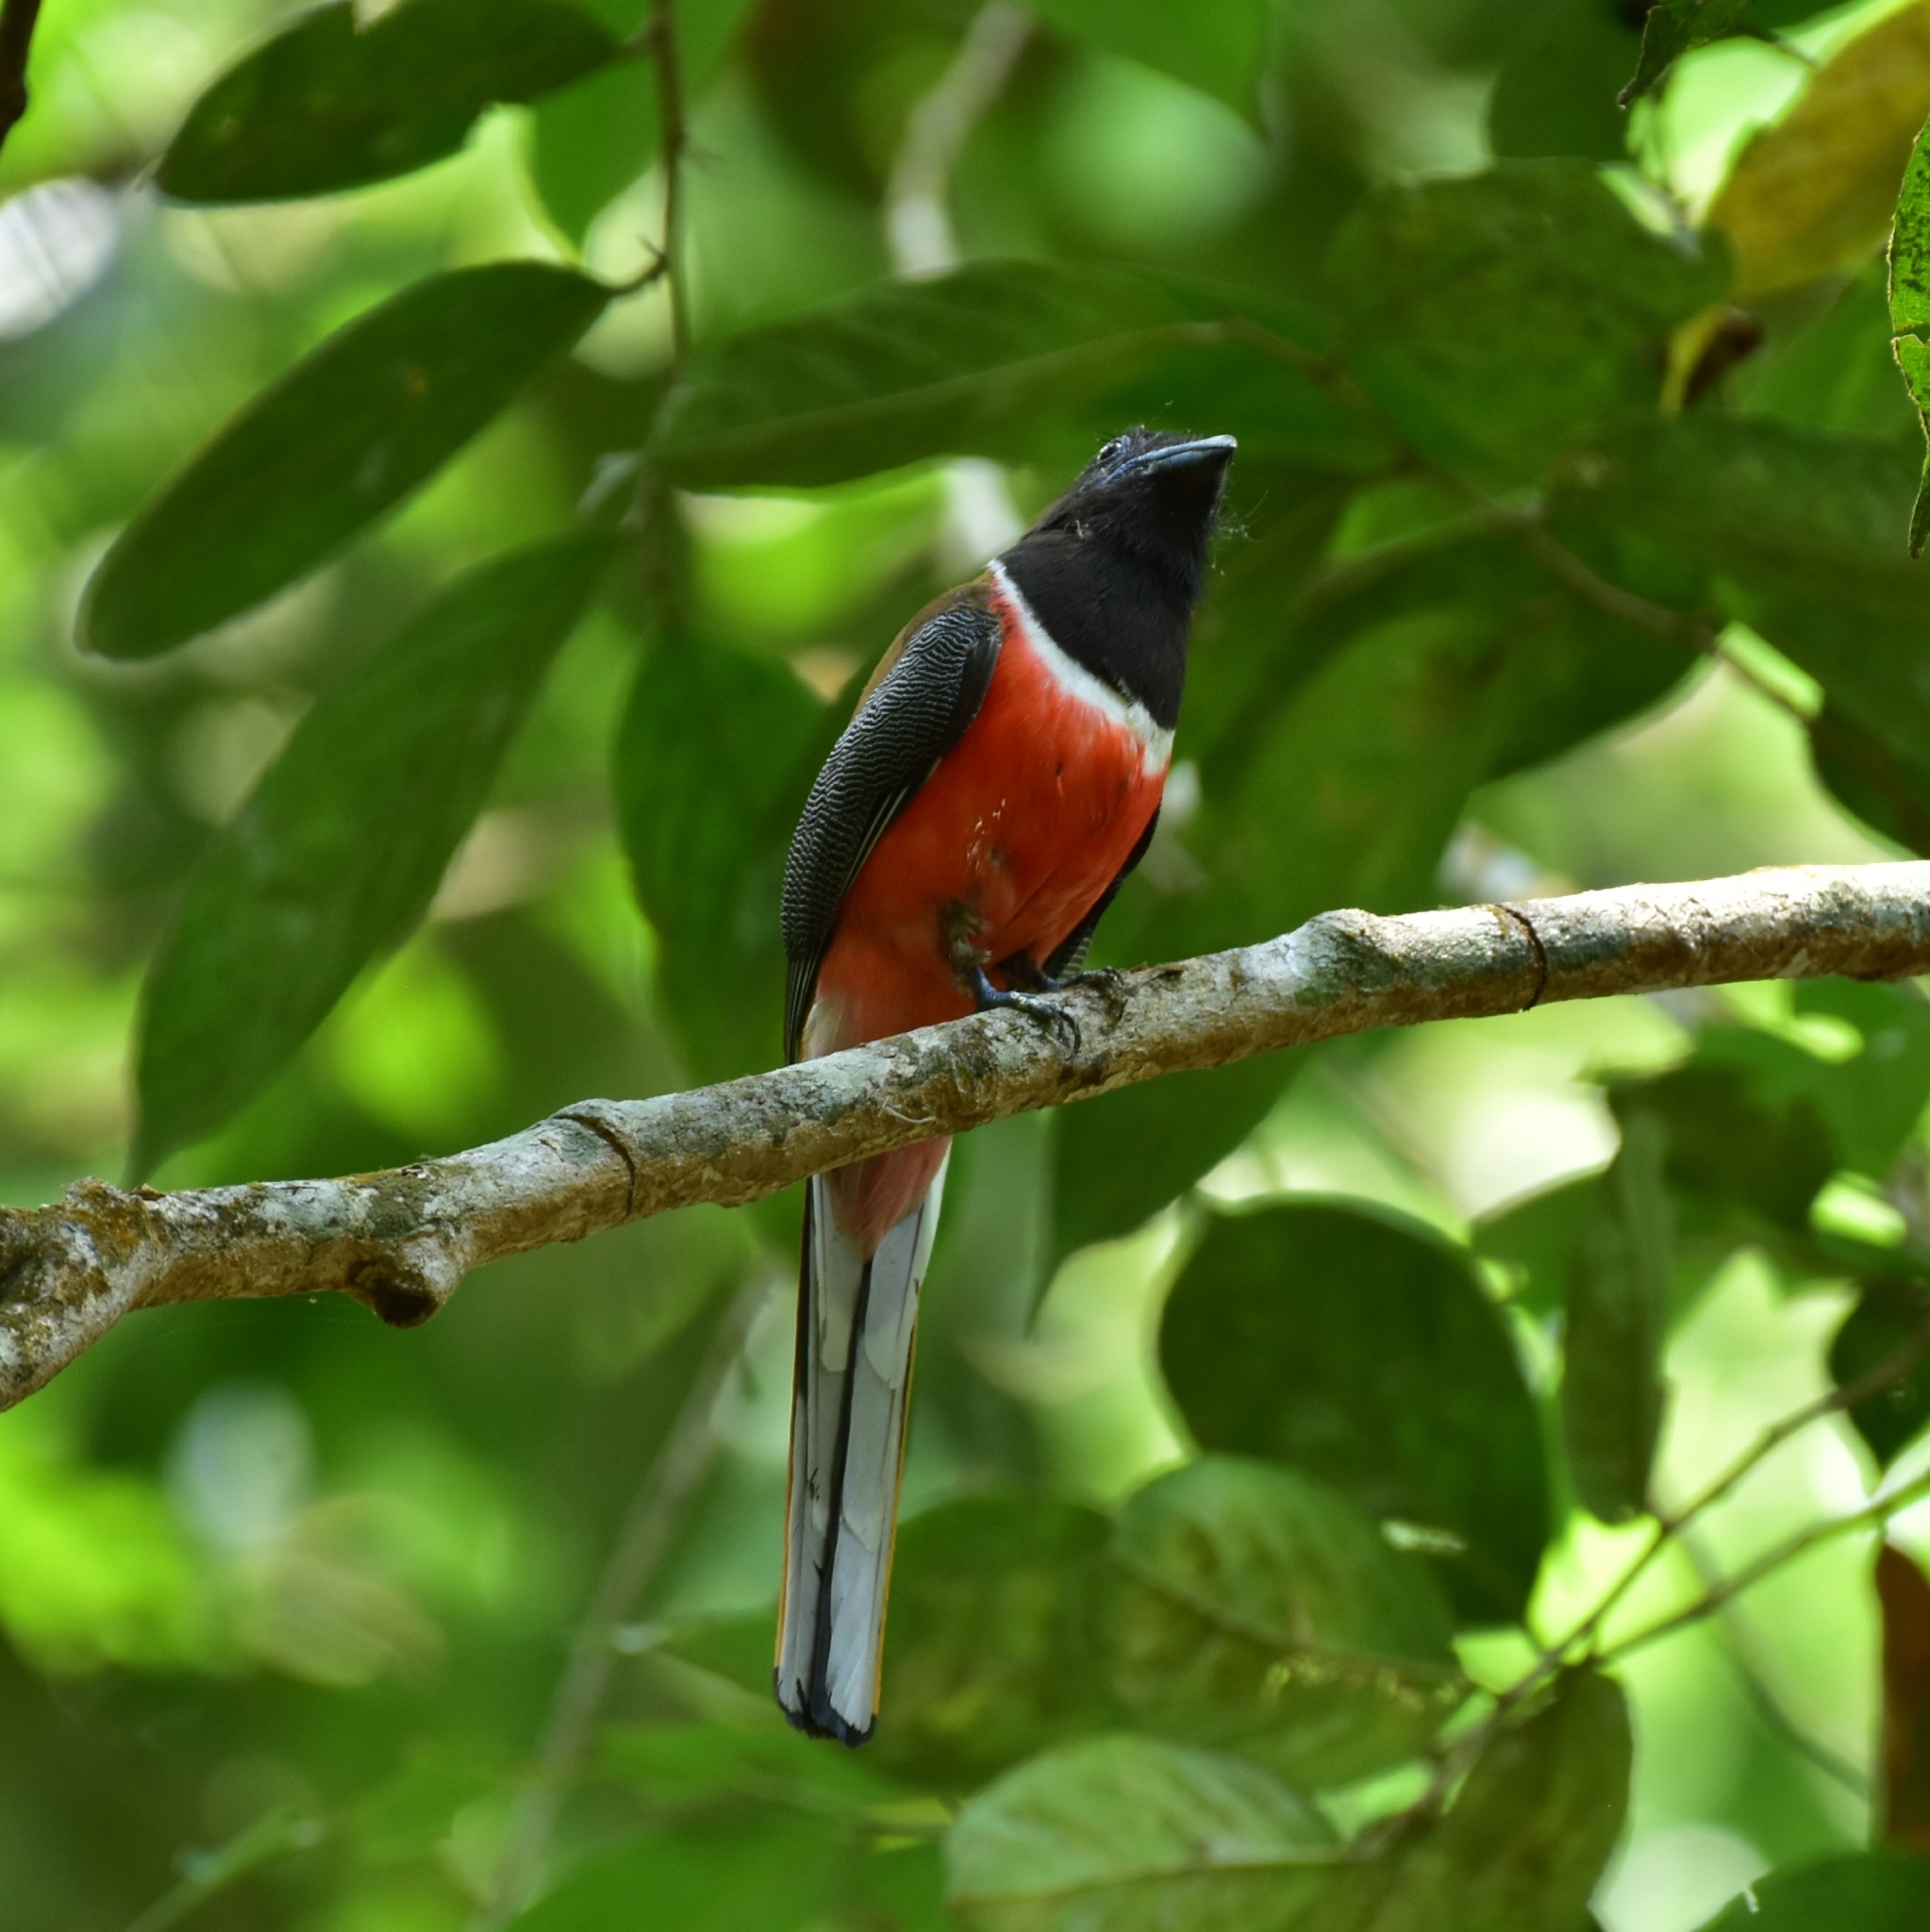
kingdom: Animalia
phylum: Chordata
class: Aves
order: Trogoniformes
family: Trogonidae
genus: Harpactes
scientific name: Harpactes fasciatus
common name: Malabar trogon
